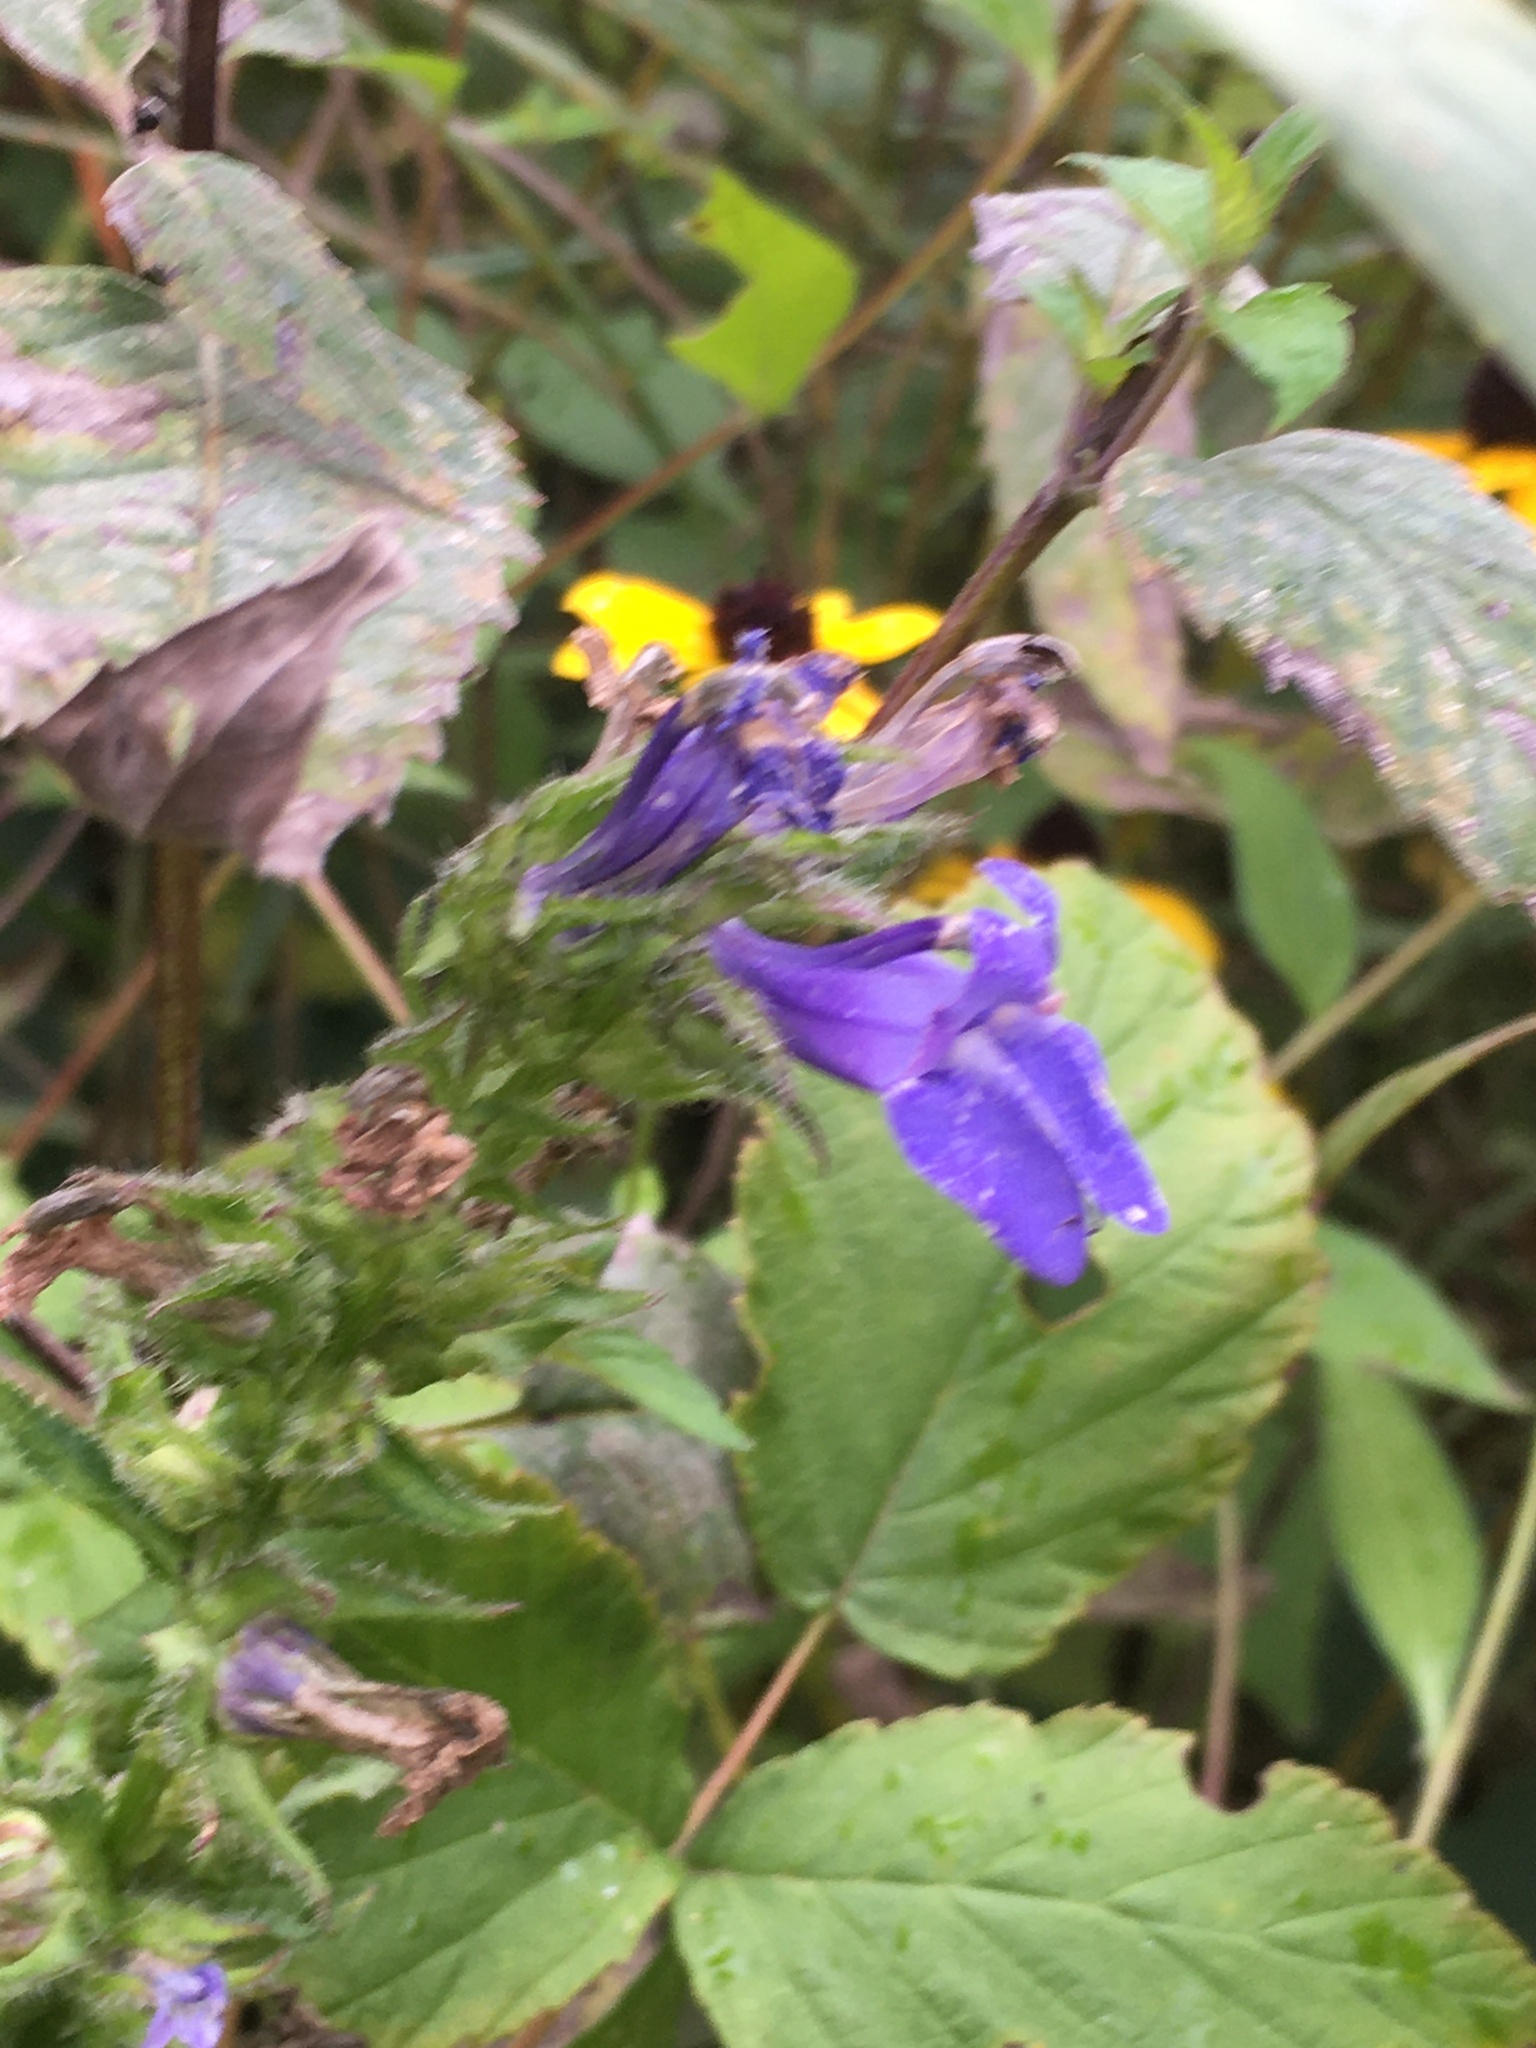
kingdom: Plantae
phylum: Tracheophyta
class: Magnoliopsida
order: Asterales
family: Campanulaceae
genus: Lobelia
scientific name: Lobelia siphilitica
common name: Great lobelia
